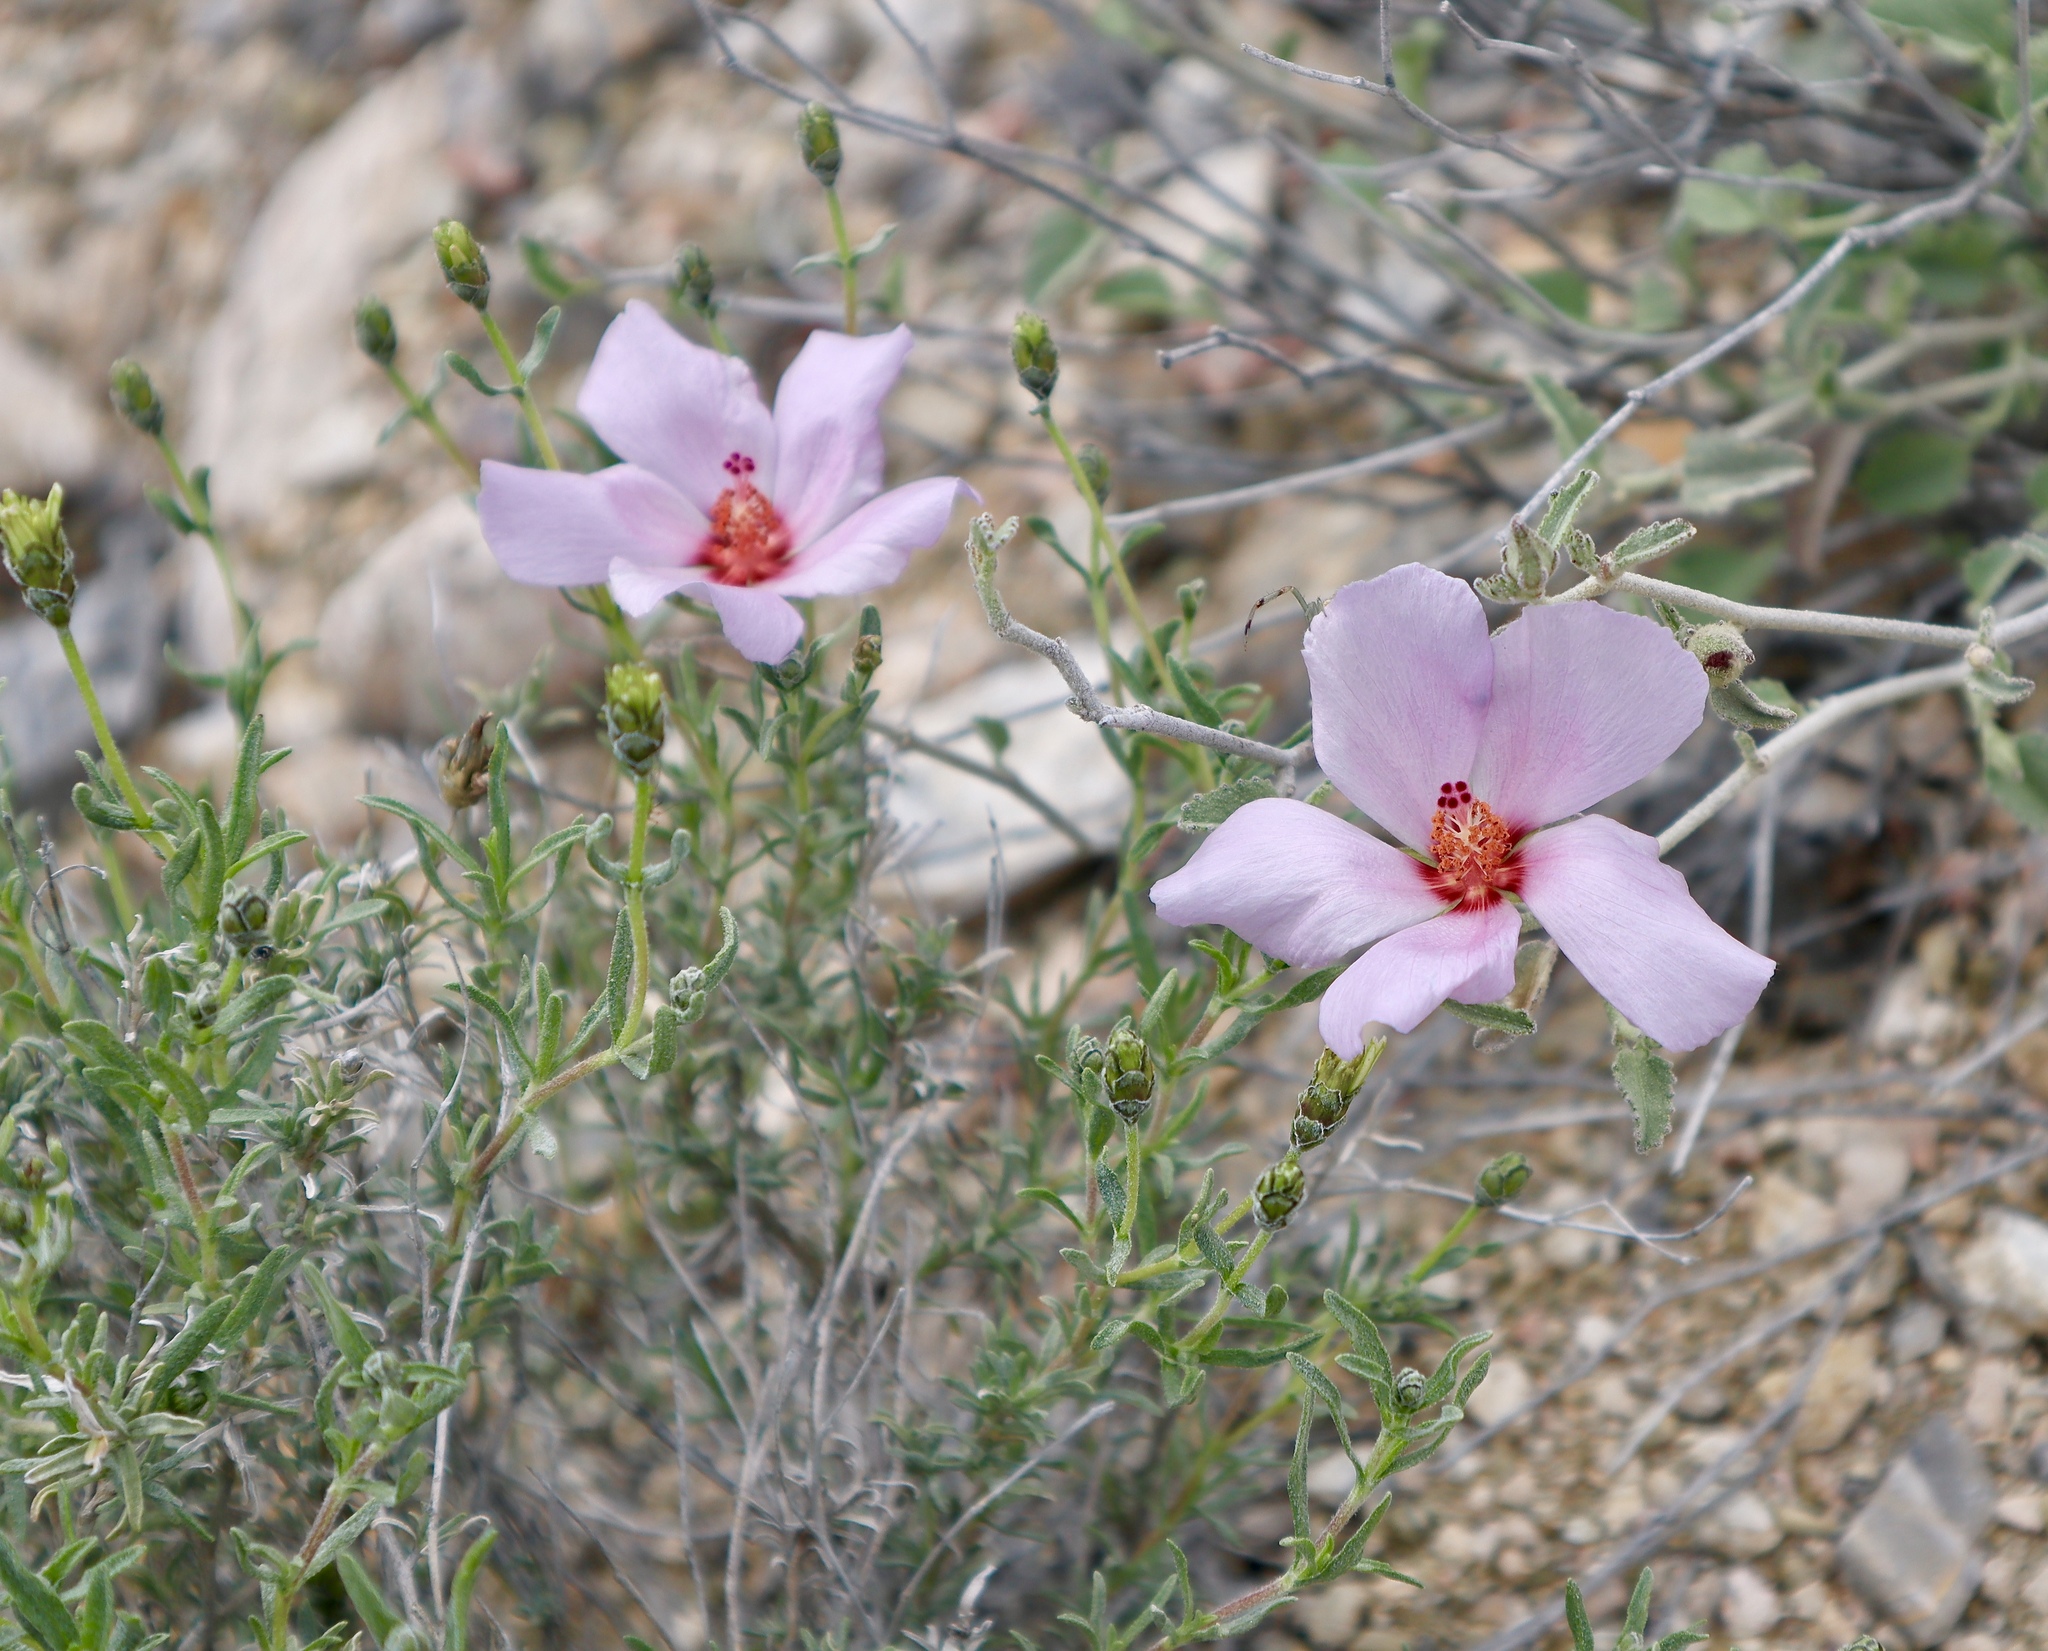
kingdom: Plantae
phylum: Tracheophyta
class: Magnoliopsida
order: Malvales
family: Malvaceae
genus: Hibiscus
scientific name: Hibiscus denudatus
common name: Paleface
